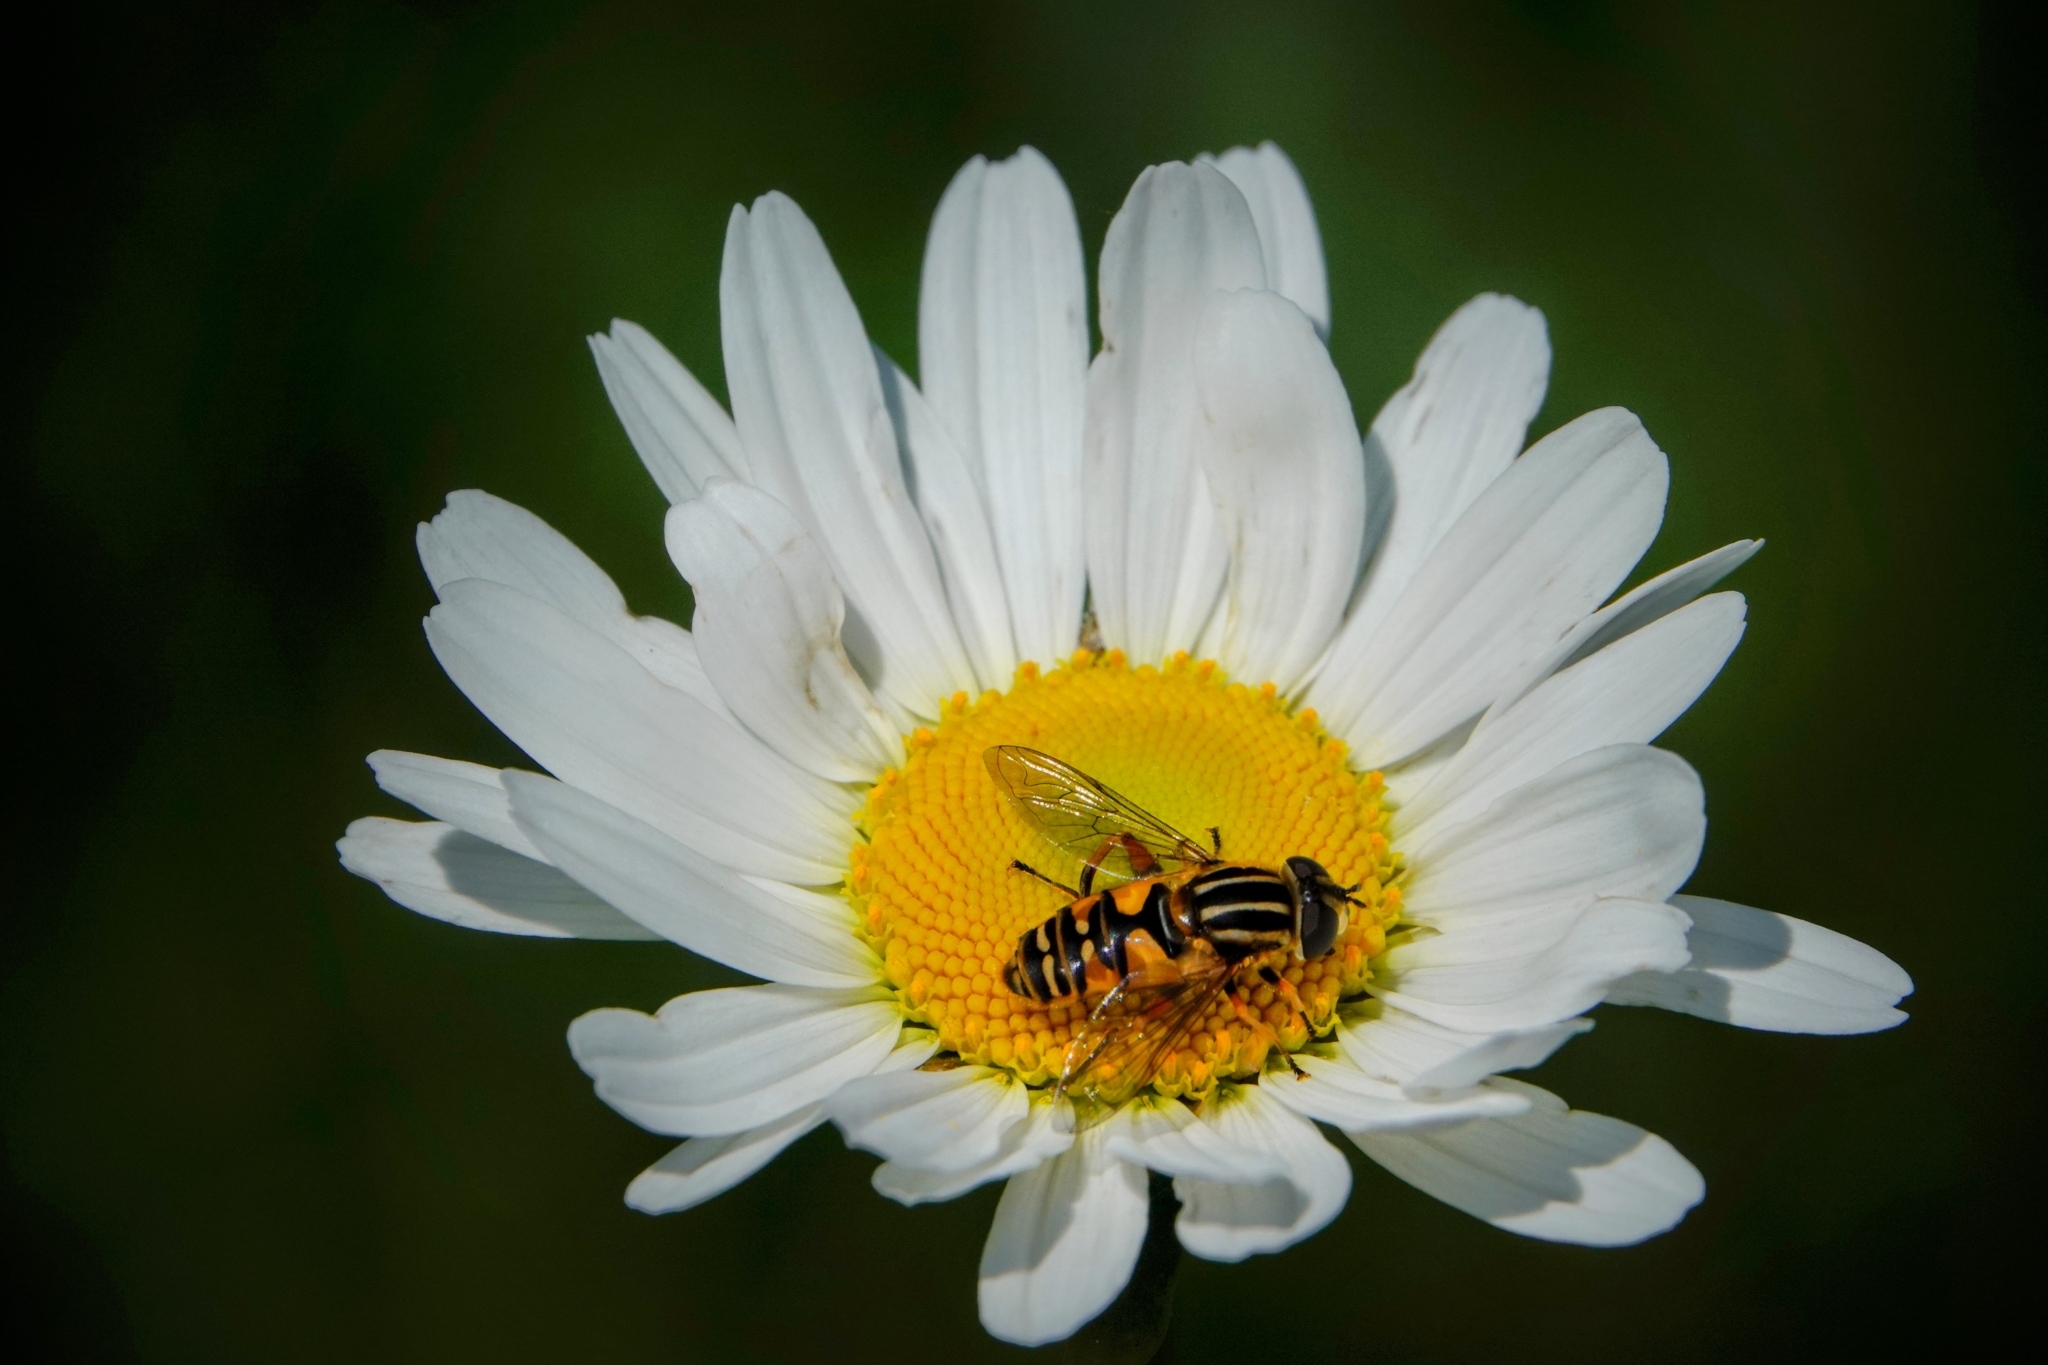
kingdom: Animalia
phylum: Arthropoda
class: Insecta
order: Diptera
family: Syrphidae
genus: Helophilus
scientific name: Helophilus pendulus
